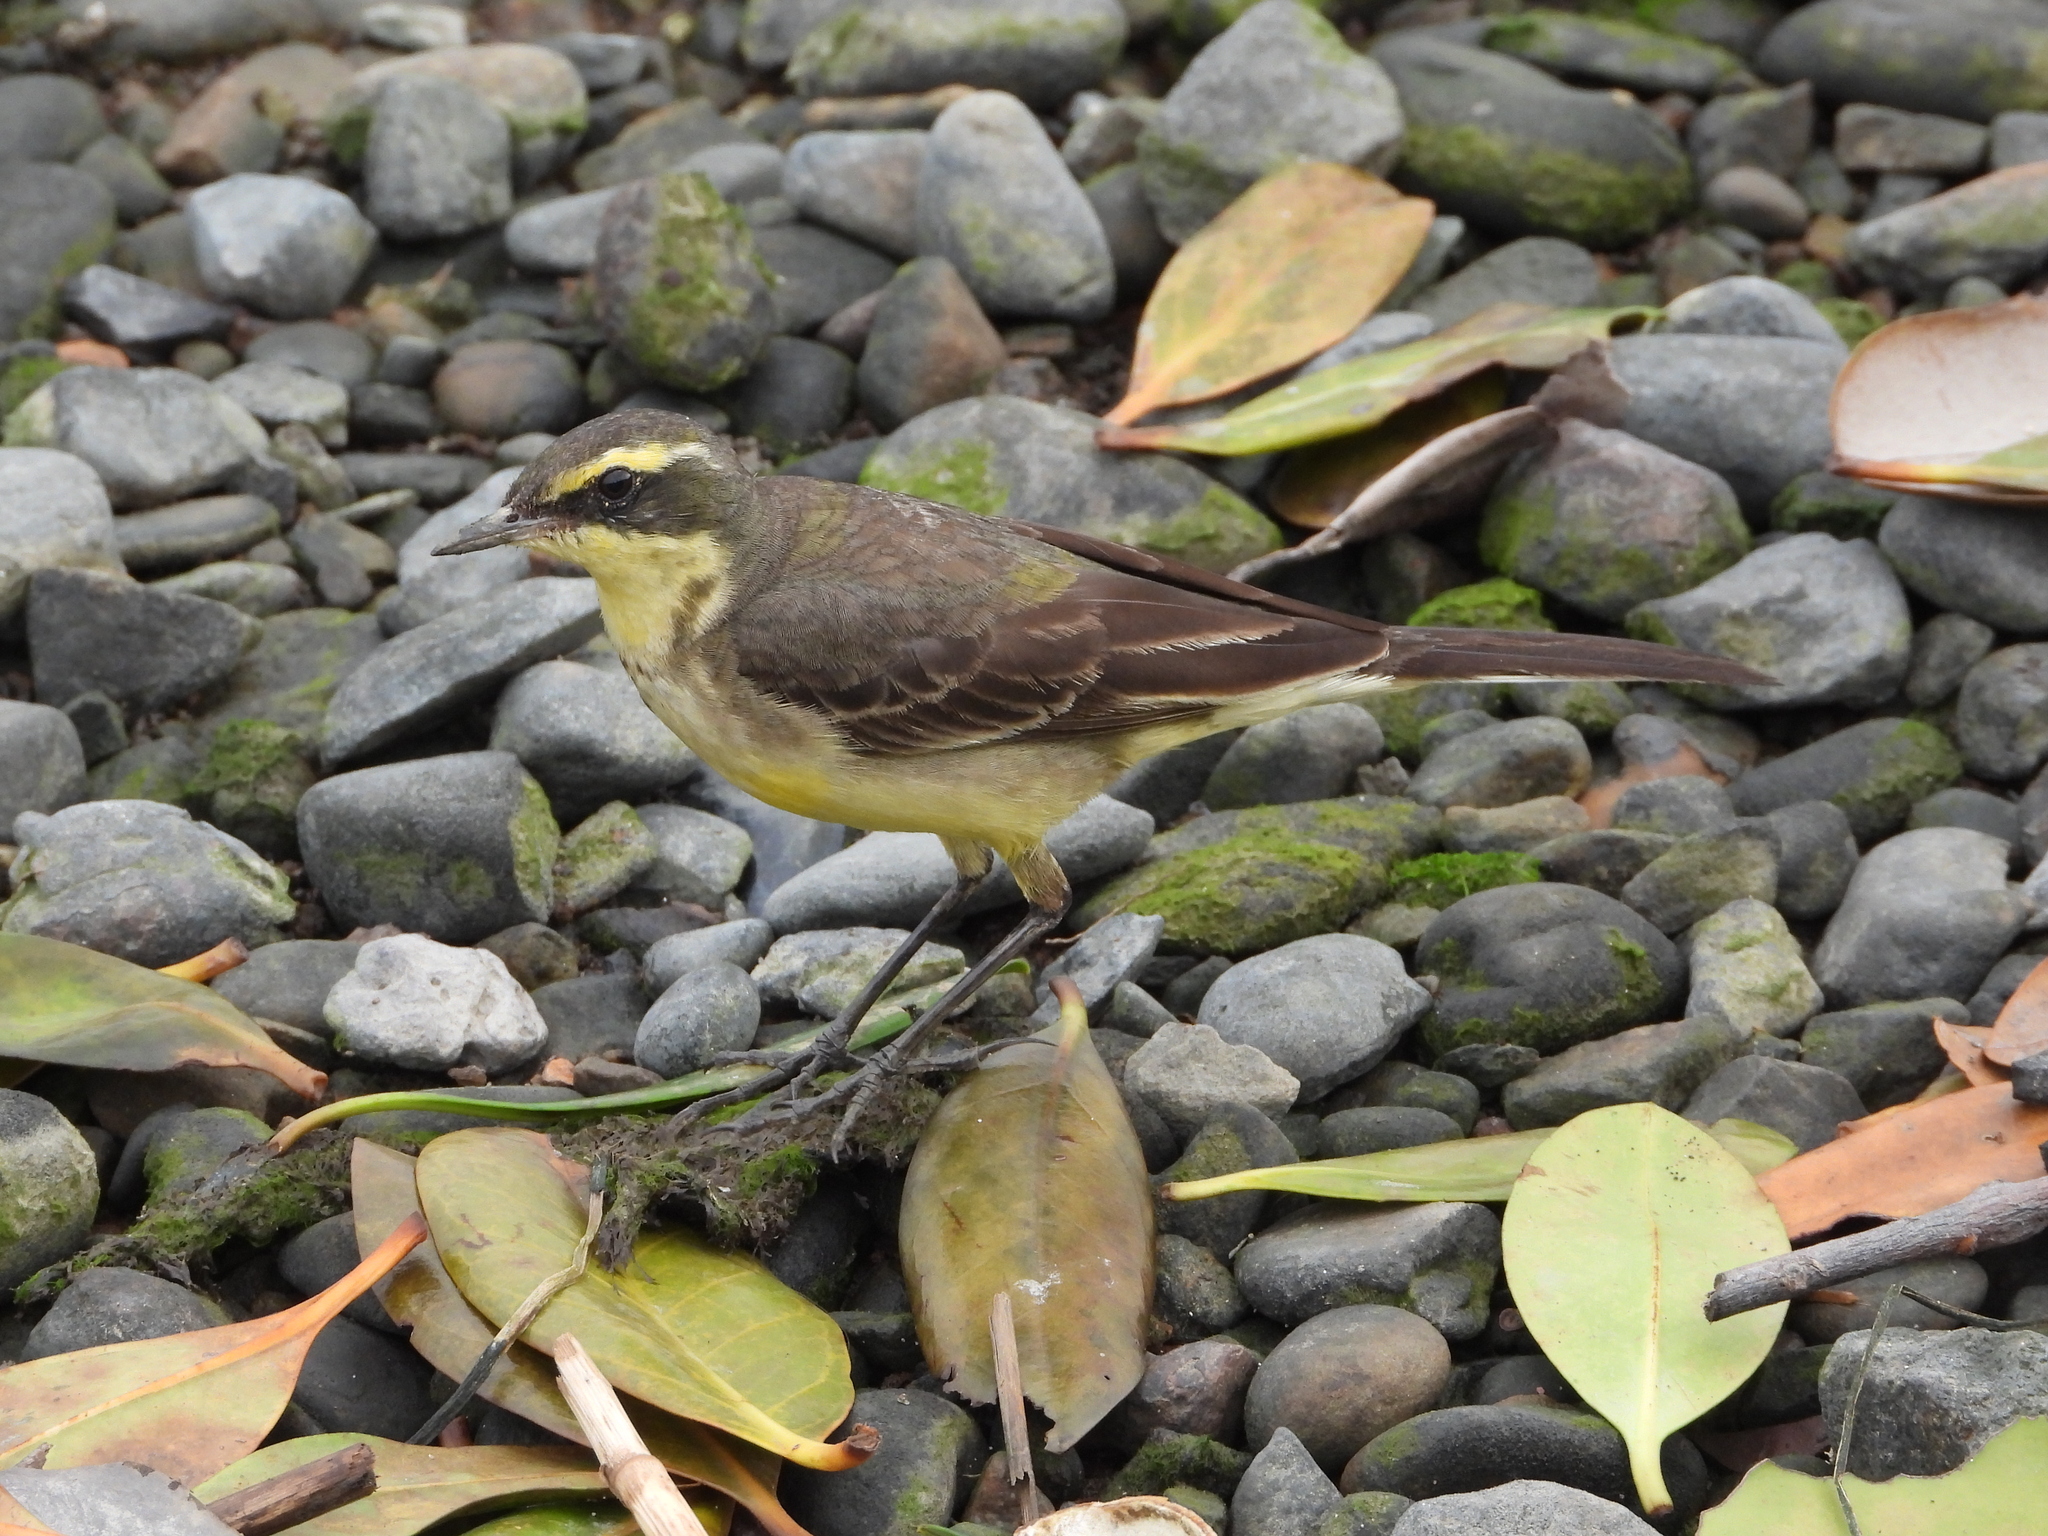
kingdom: Animalia
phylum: Chordata
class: Aves
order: Passeriformes
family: Motacillidae
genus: Motacilla
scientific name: Motacilla tschutschensis
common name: Eastern yellow wagtail
